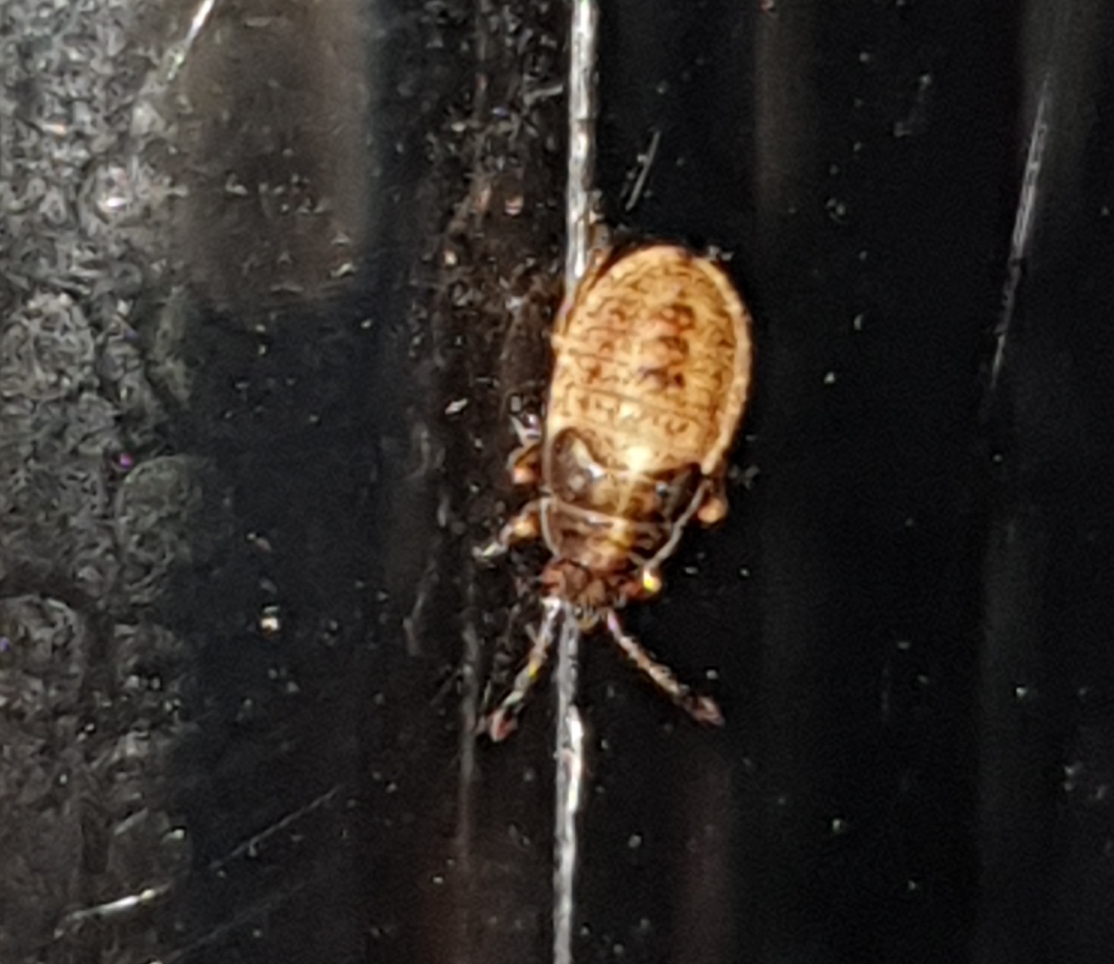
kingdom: Animalia
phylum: Arthropoda
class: Insecta
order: Hemiptera
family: Lygaeidae
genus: Kleidocerys
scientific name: Kleidocerys resedae
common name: Birch catkin bug
